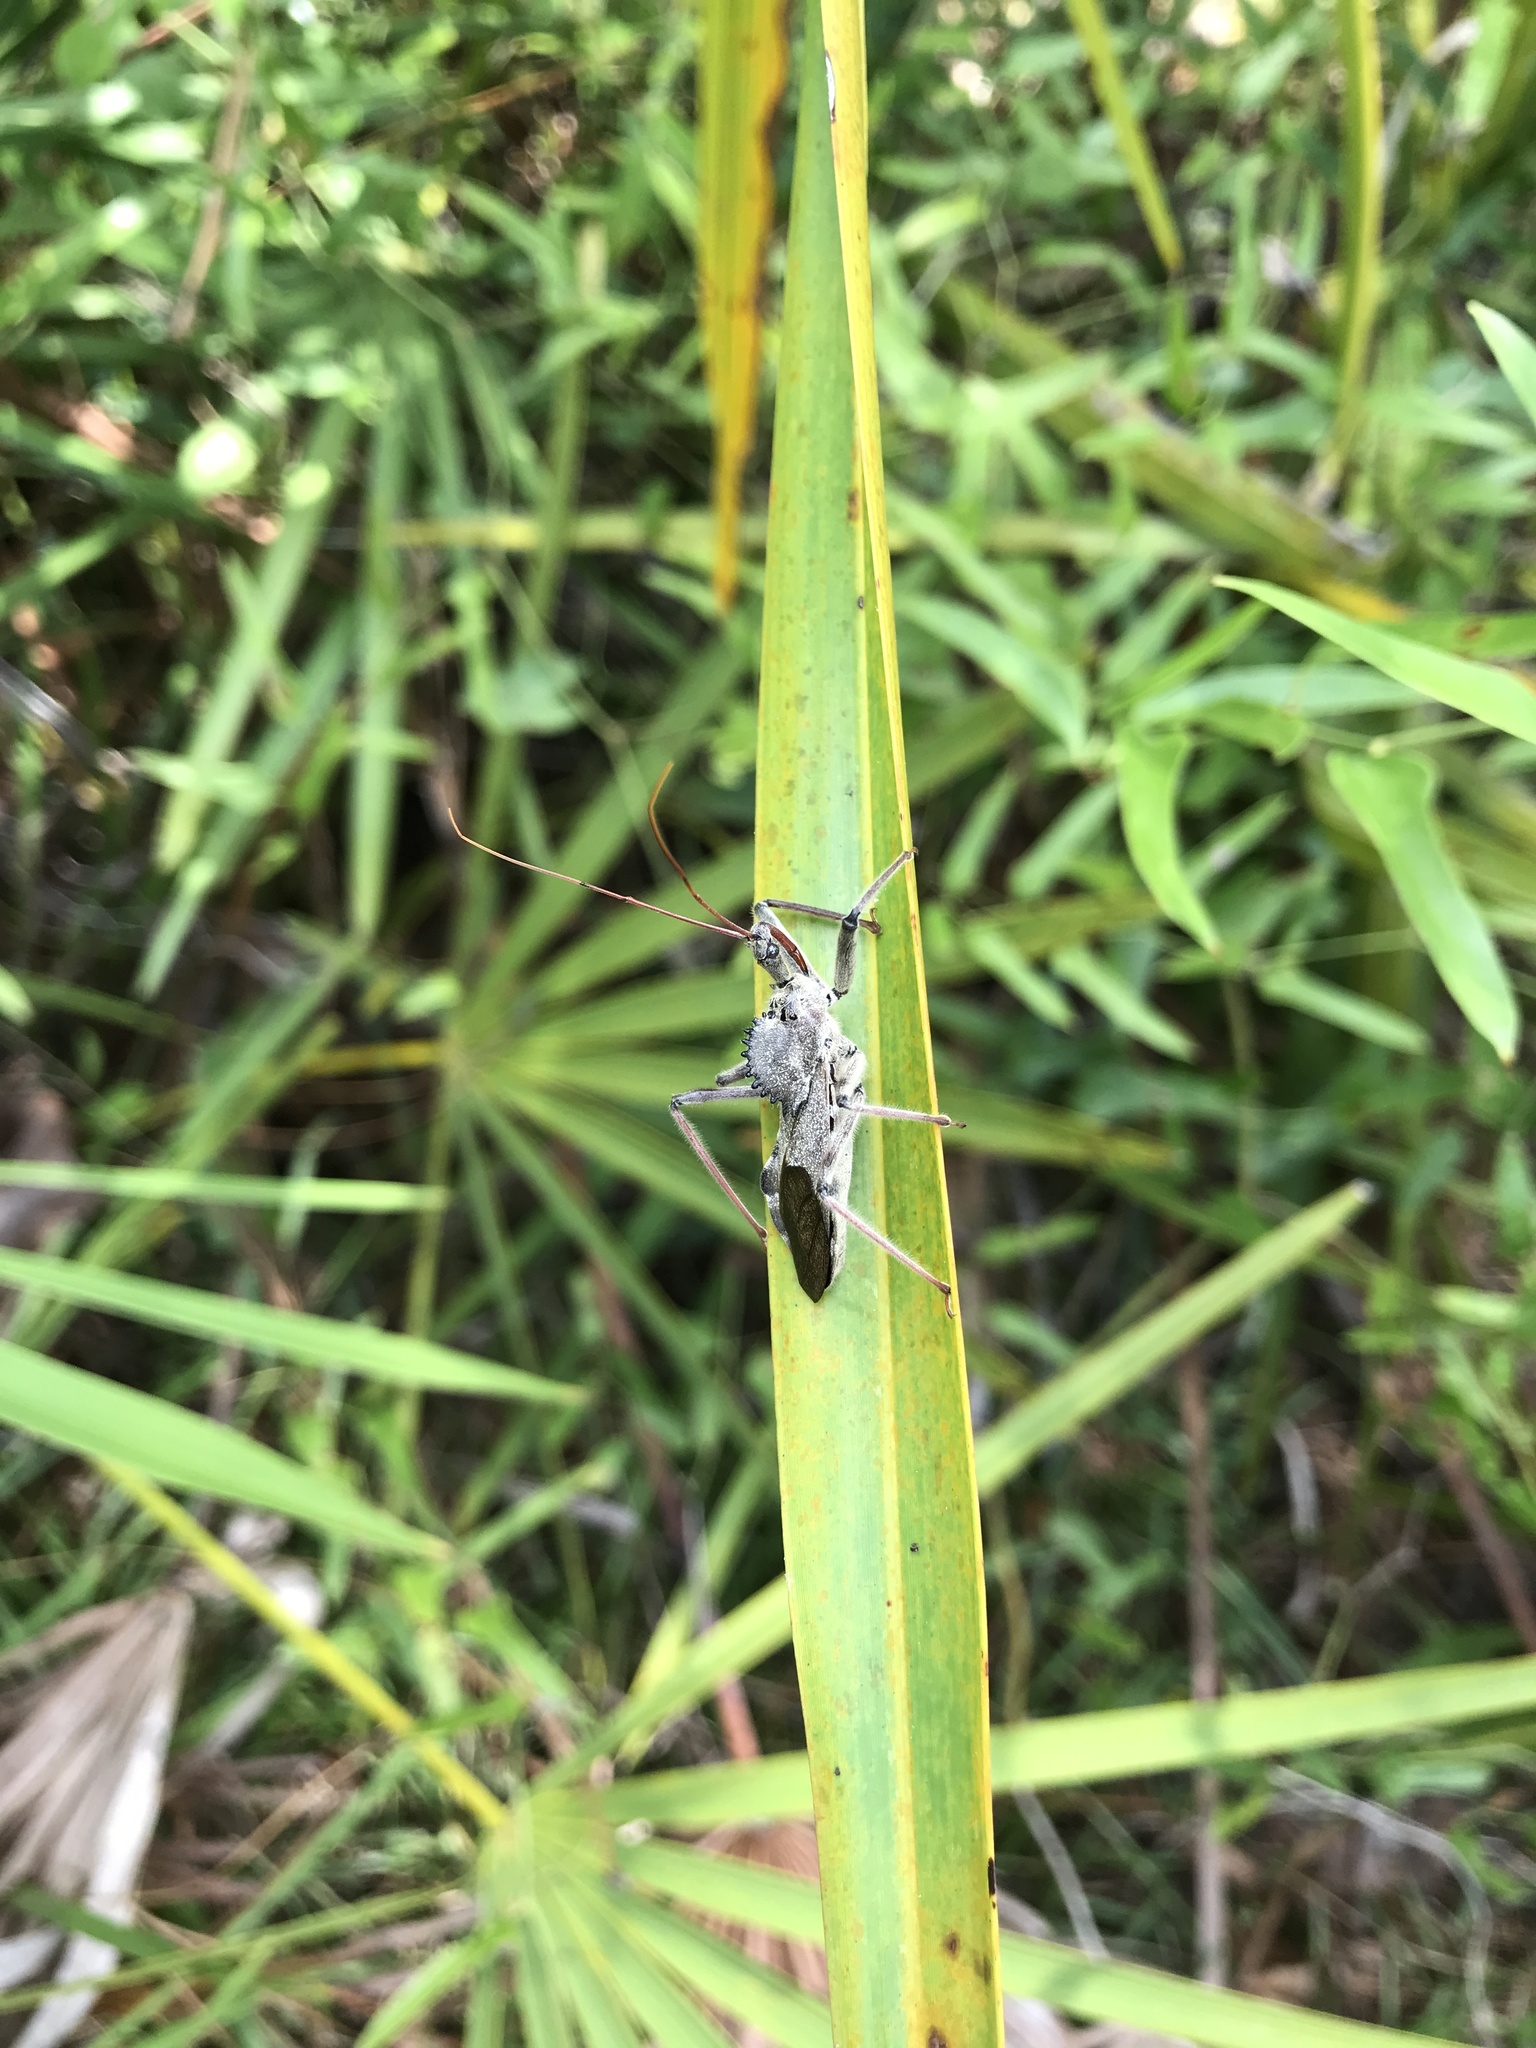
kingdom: Animalia
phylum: Arthropoda
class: Insecta
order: Hemiptera
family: Reduviidae
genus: Arilus
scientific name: Arilus cristatus
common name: North american wheel bug
